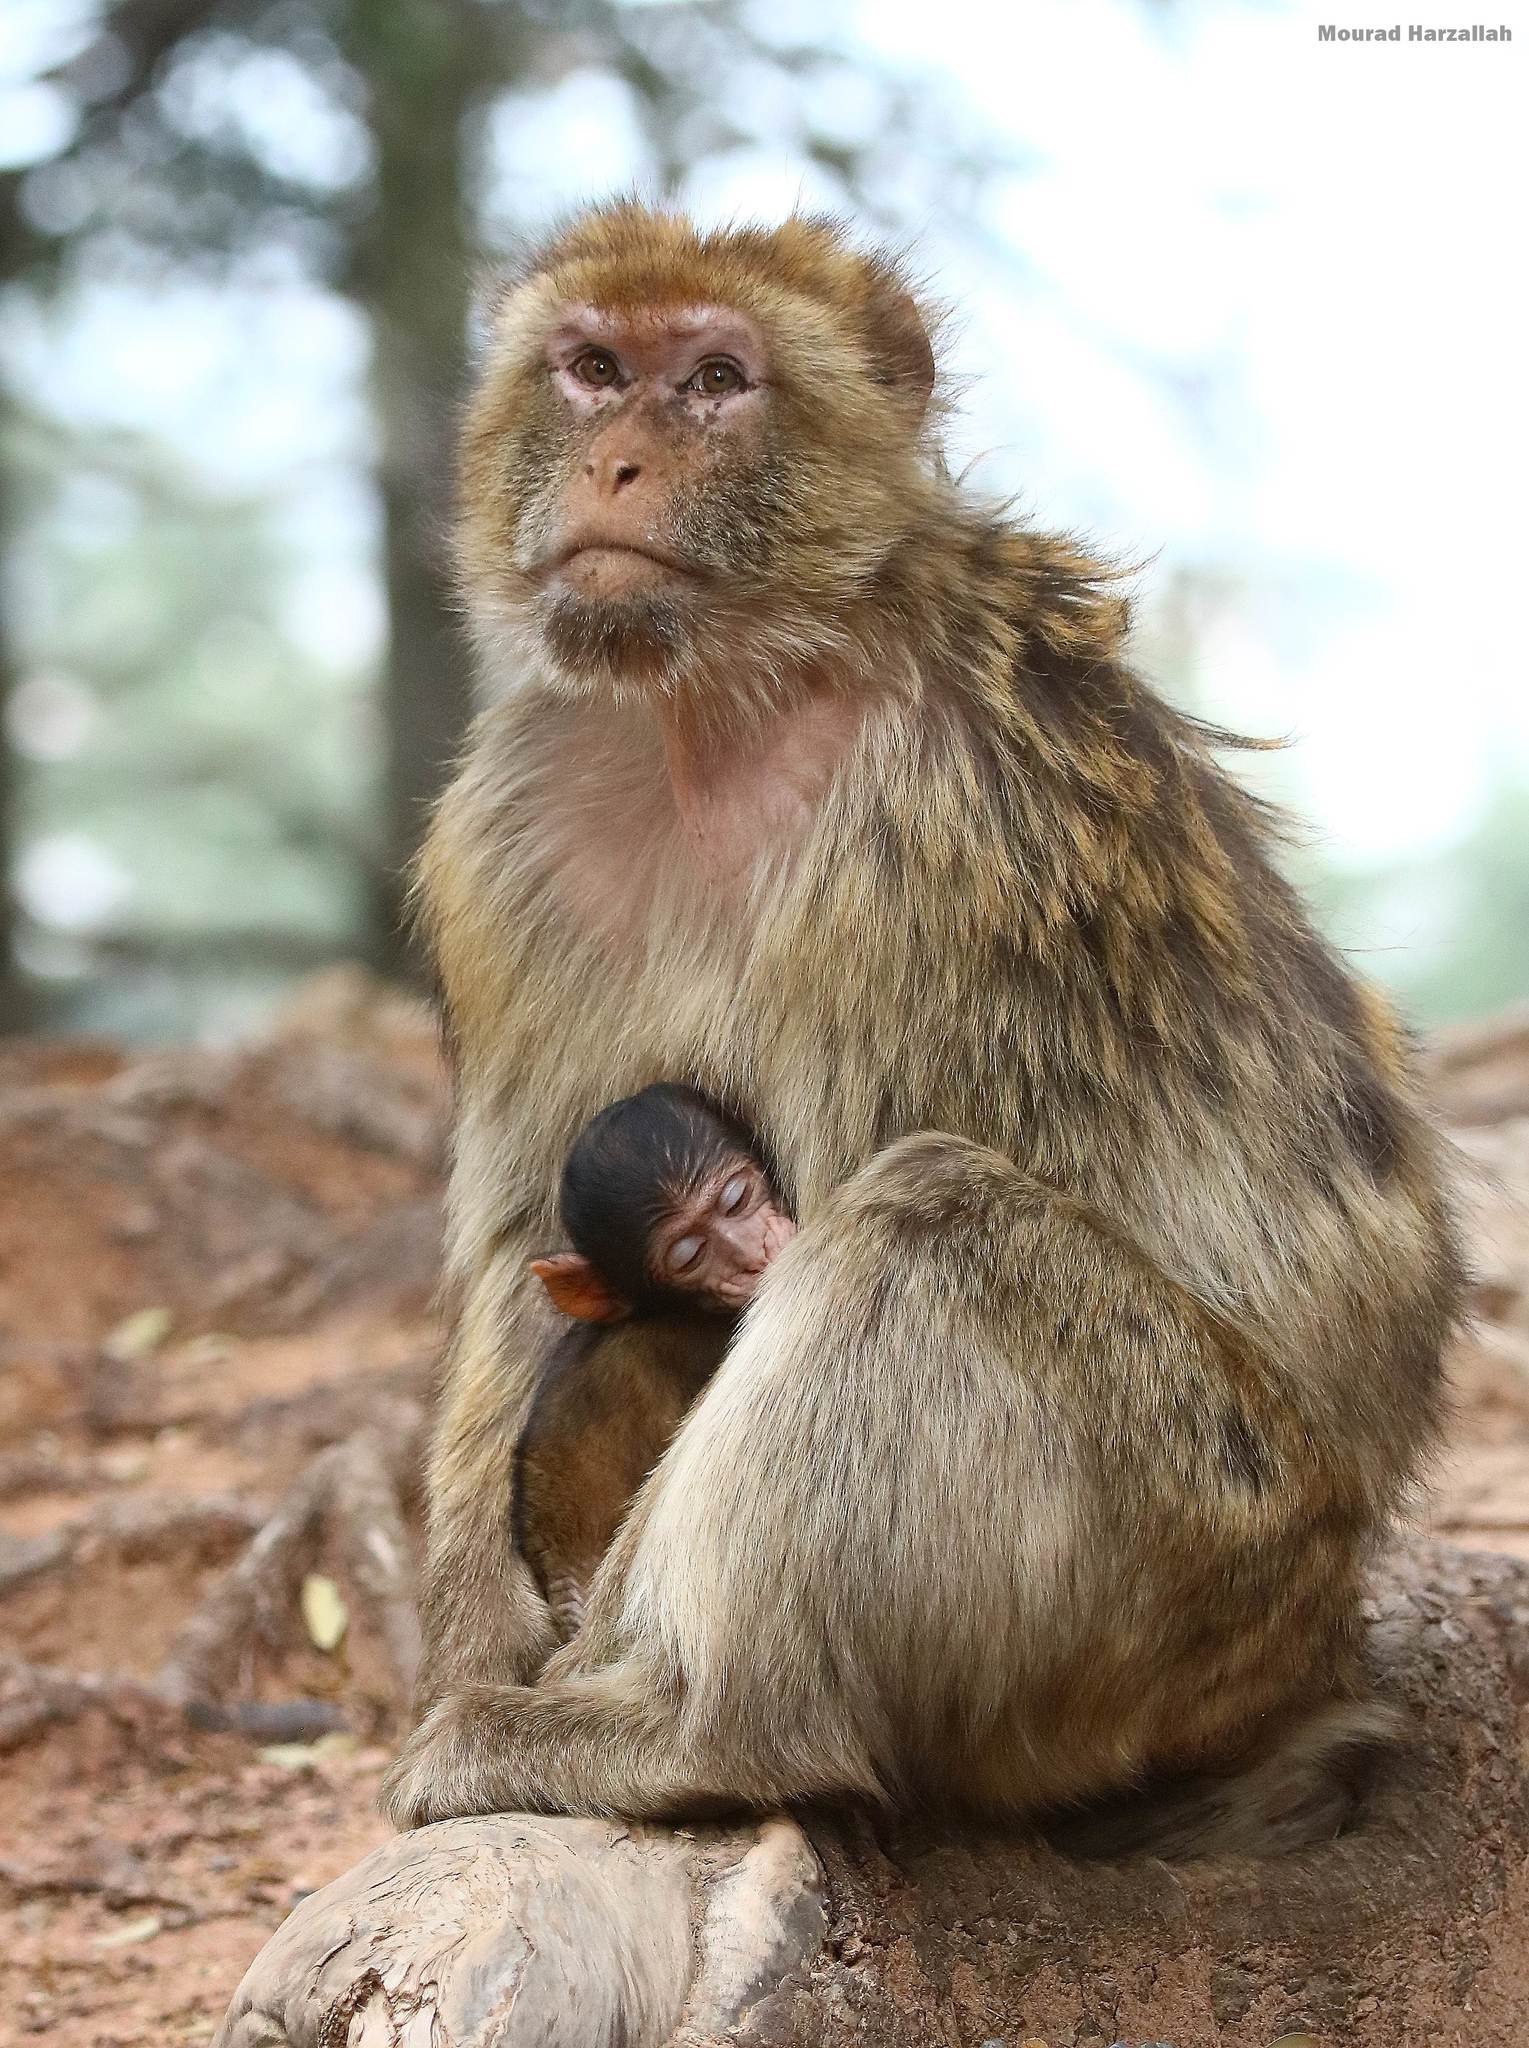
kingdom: Animalia
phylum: Chordata
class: Mammalia
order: Primates
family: Cercopithecidae
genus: Macaca
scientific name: Macaca sylvanus
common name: Barbary macaque
